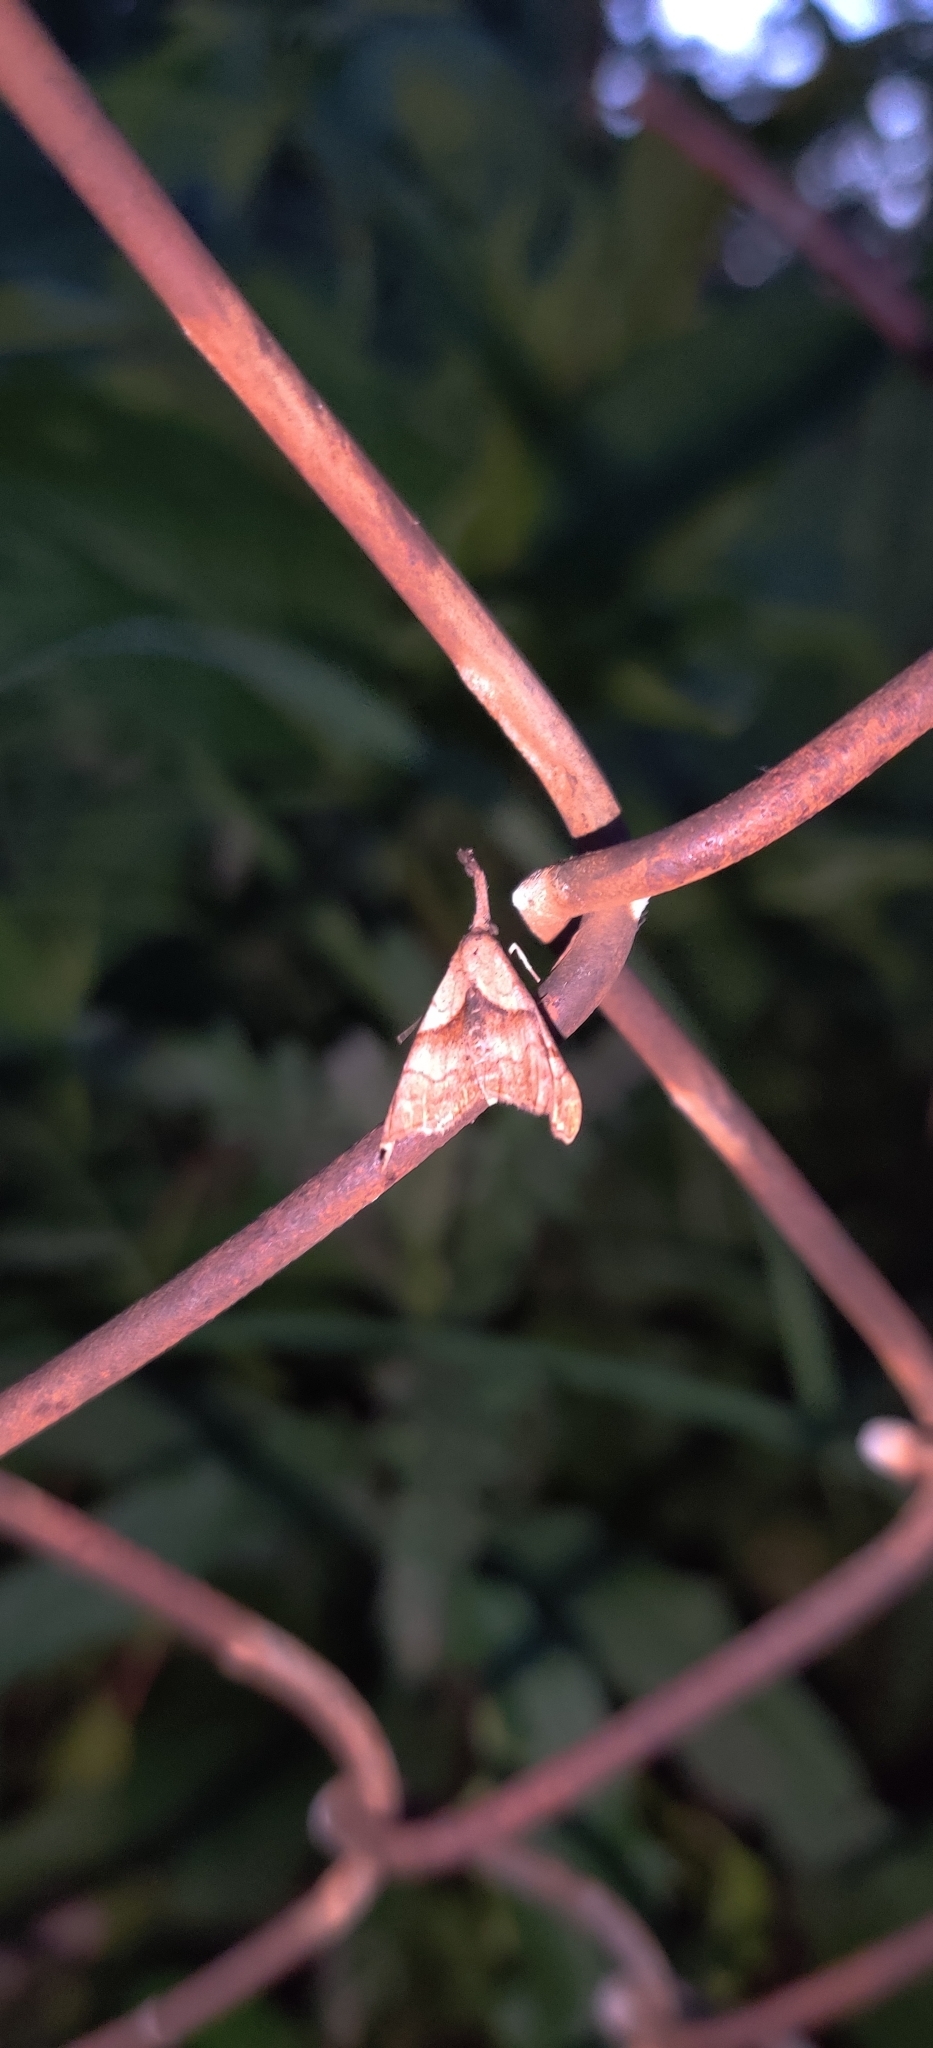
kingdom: Animalia
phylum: Arthropoda
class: Insecta
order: Lepidoptera
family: Erebidae
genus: Palthis
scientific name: Palthis angulalis
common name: Dark-spotted palthis moth
